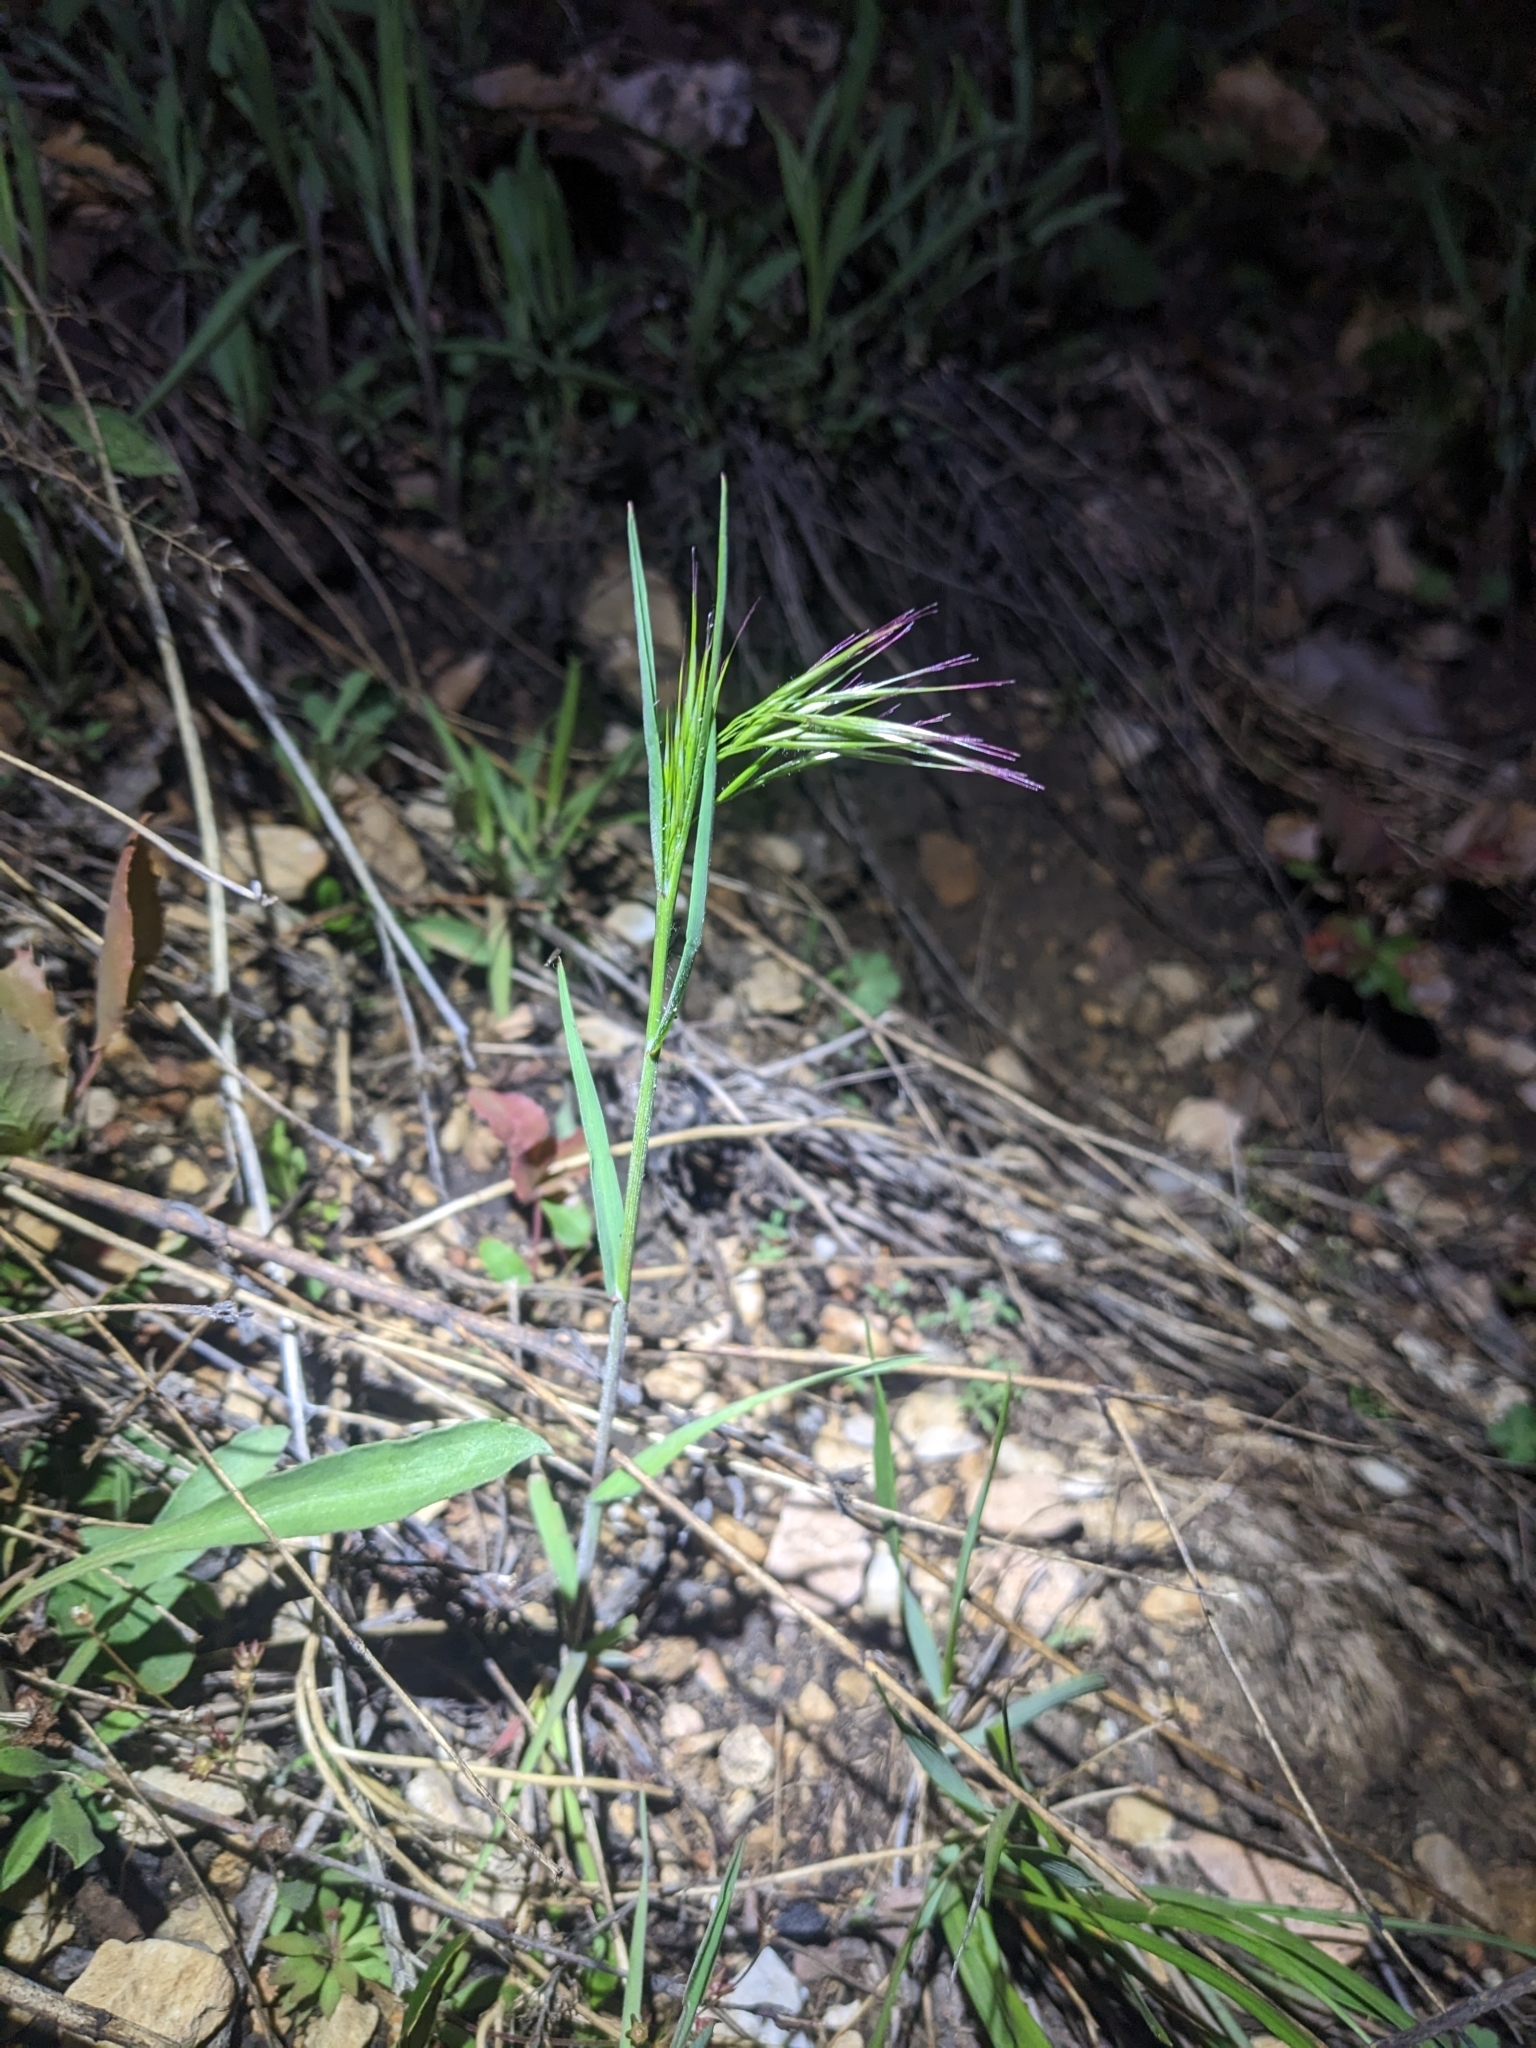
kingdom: Plantae
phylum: Tracheophyta
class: Liliopsida
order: Poales
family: Poaceae
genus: Bromus
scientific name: Bromus tectorum
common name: Cheatgrass
